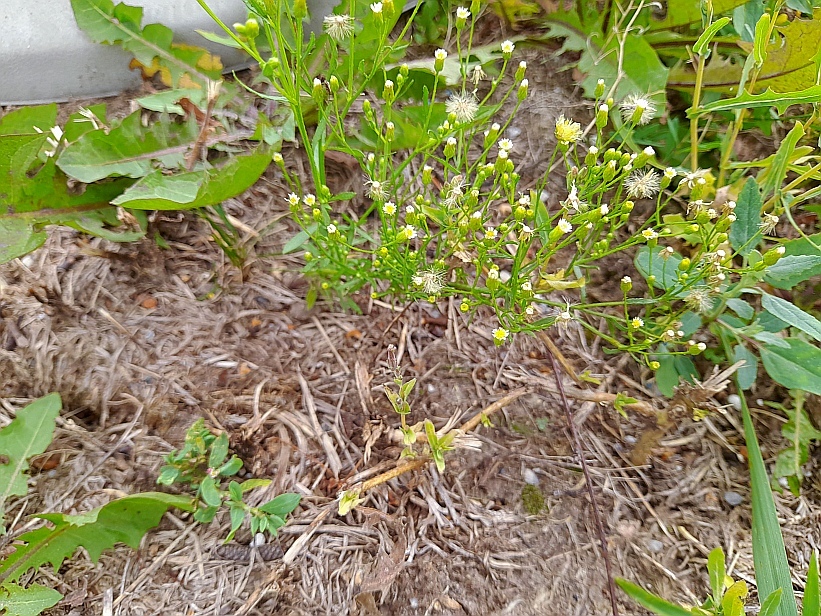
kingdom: Plantae
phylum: Tracheophyta
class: Magnoliopsida
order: Asterales
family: Asteraceae
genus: Erigeron
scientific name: Erigeron canadensis
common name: Canadian fleabane
